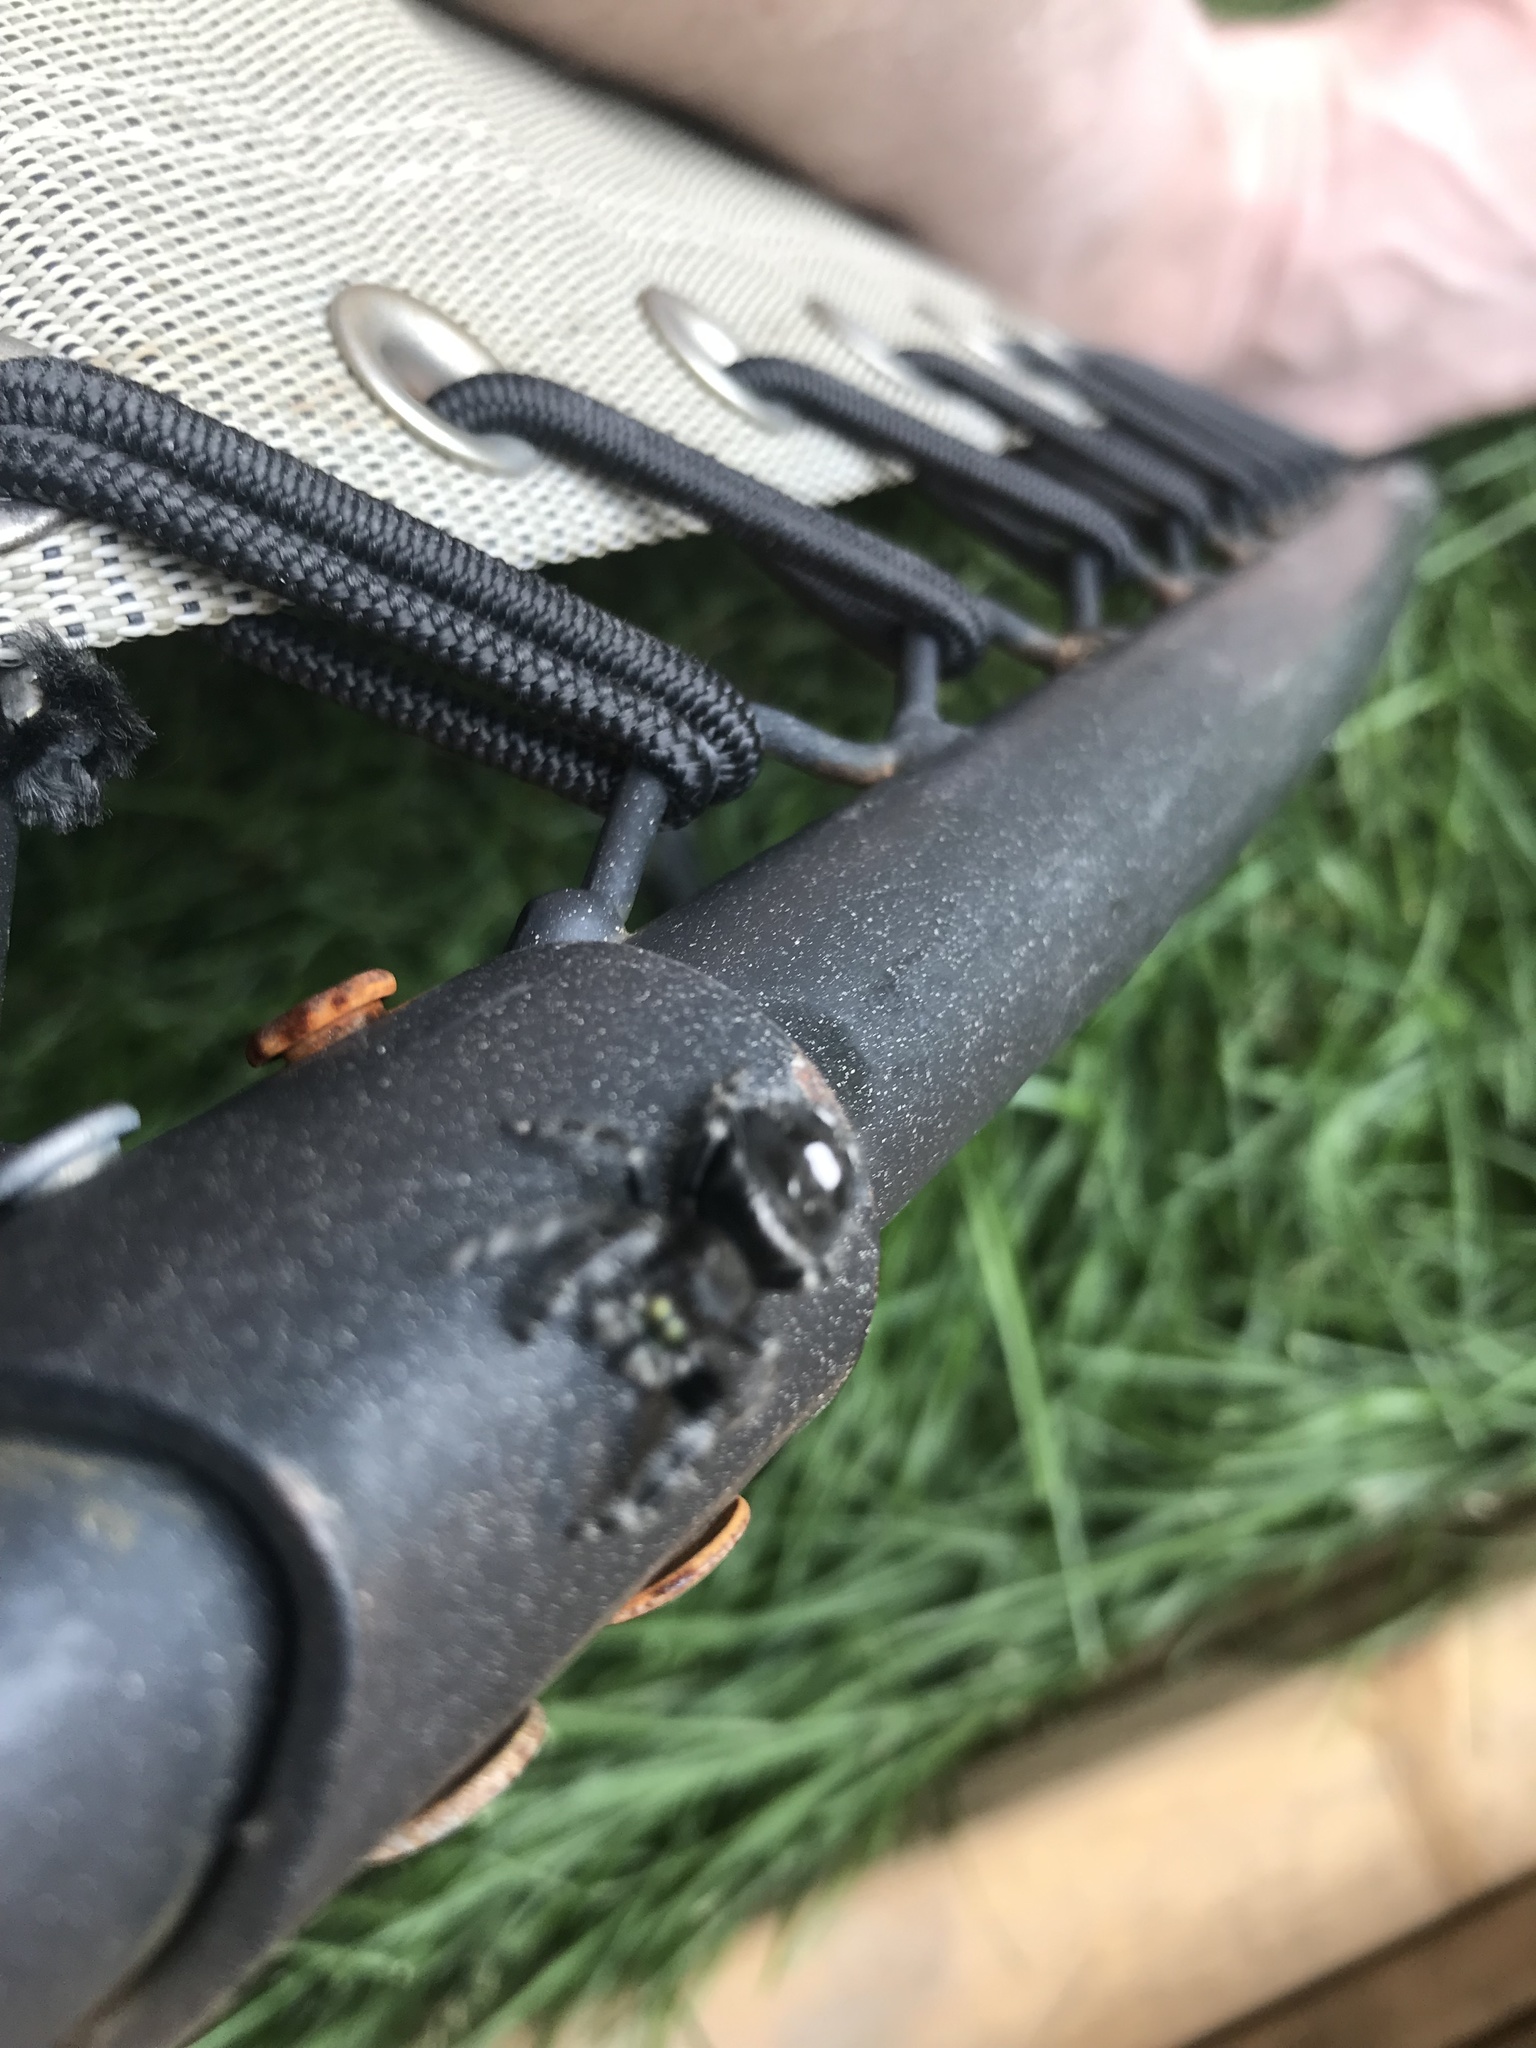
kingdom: Animalia
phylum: Arthropoda
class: Arachnida
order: Araneae
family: Salticidae
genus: Phidippus
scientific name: Phidippus audax
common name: Bold jumper
